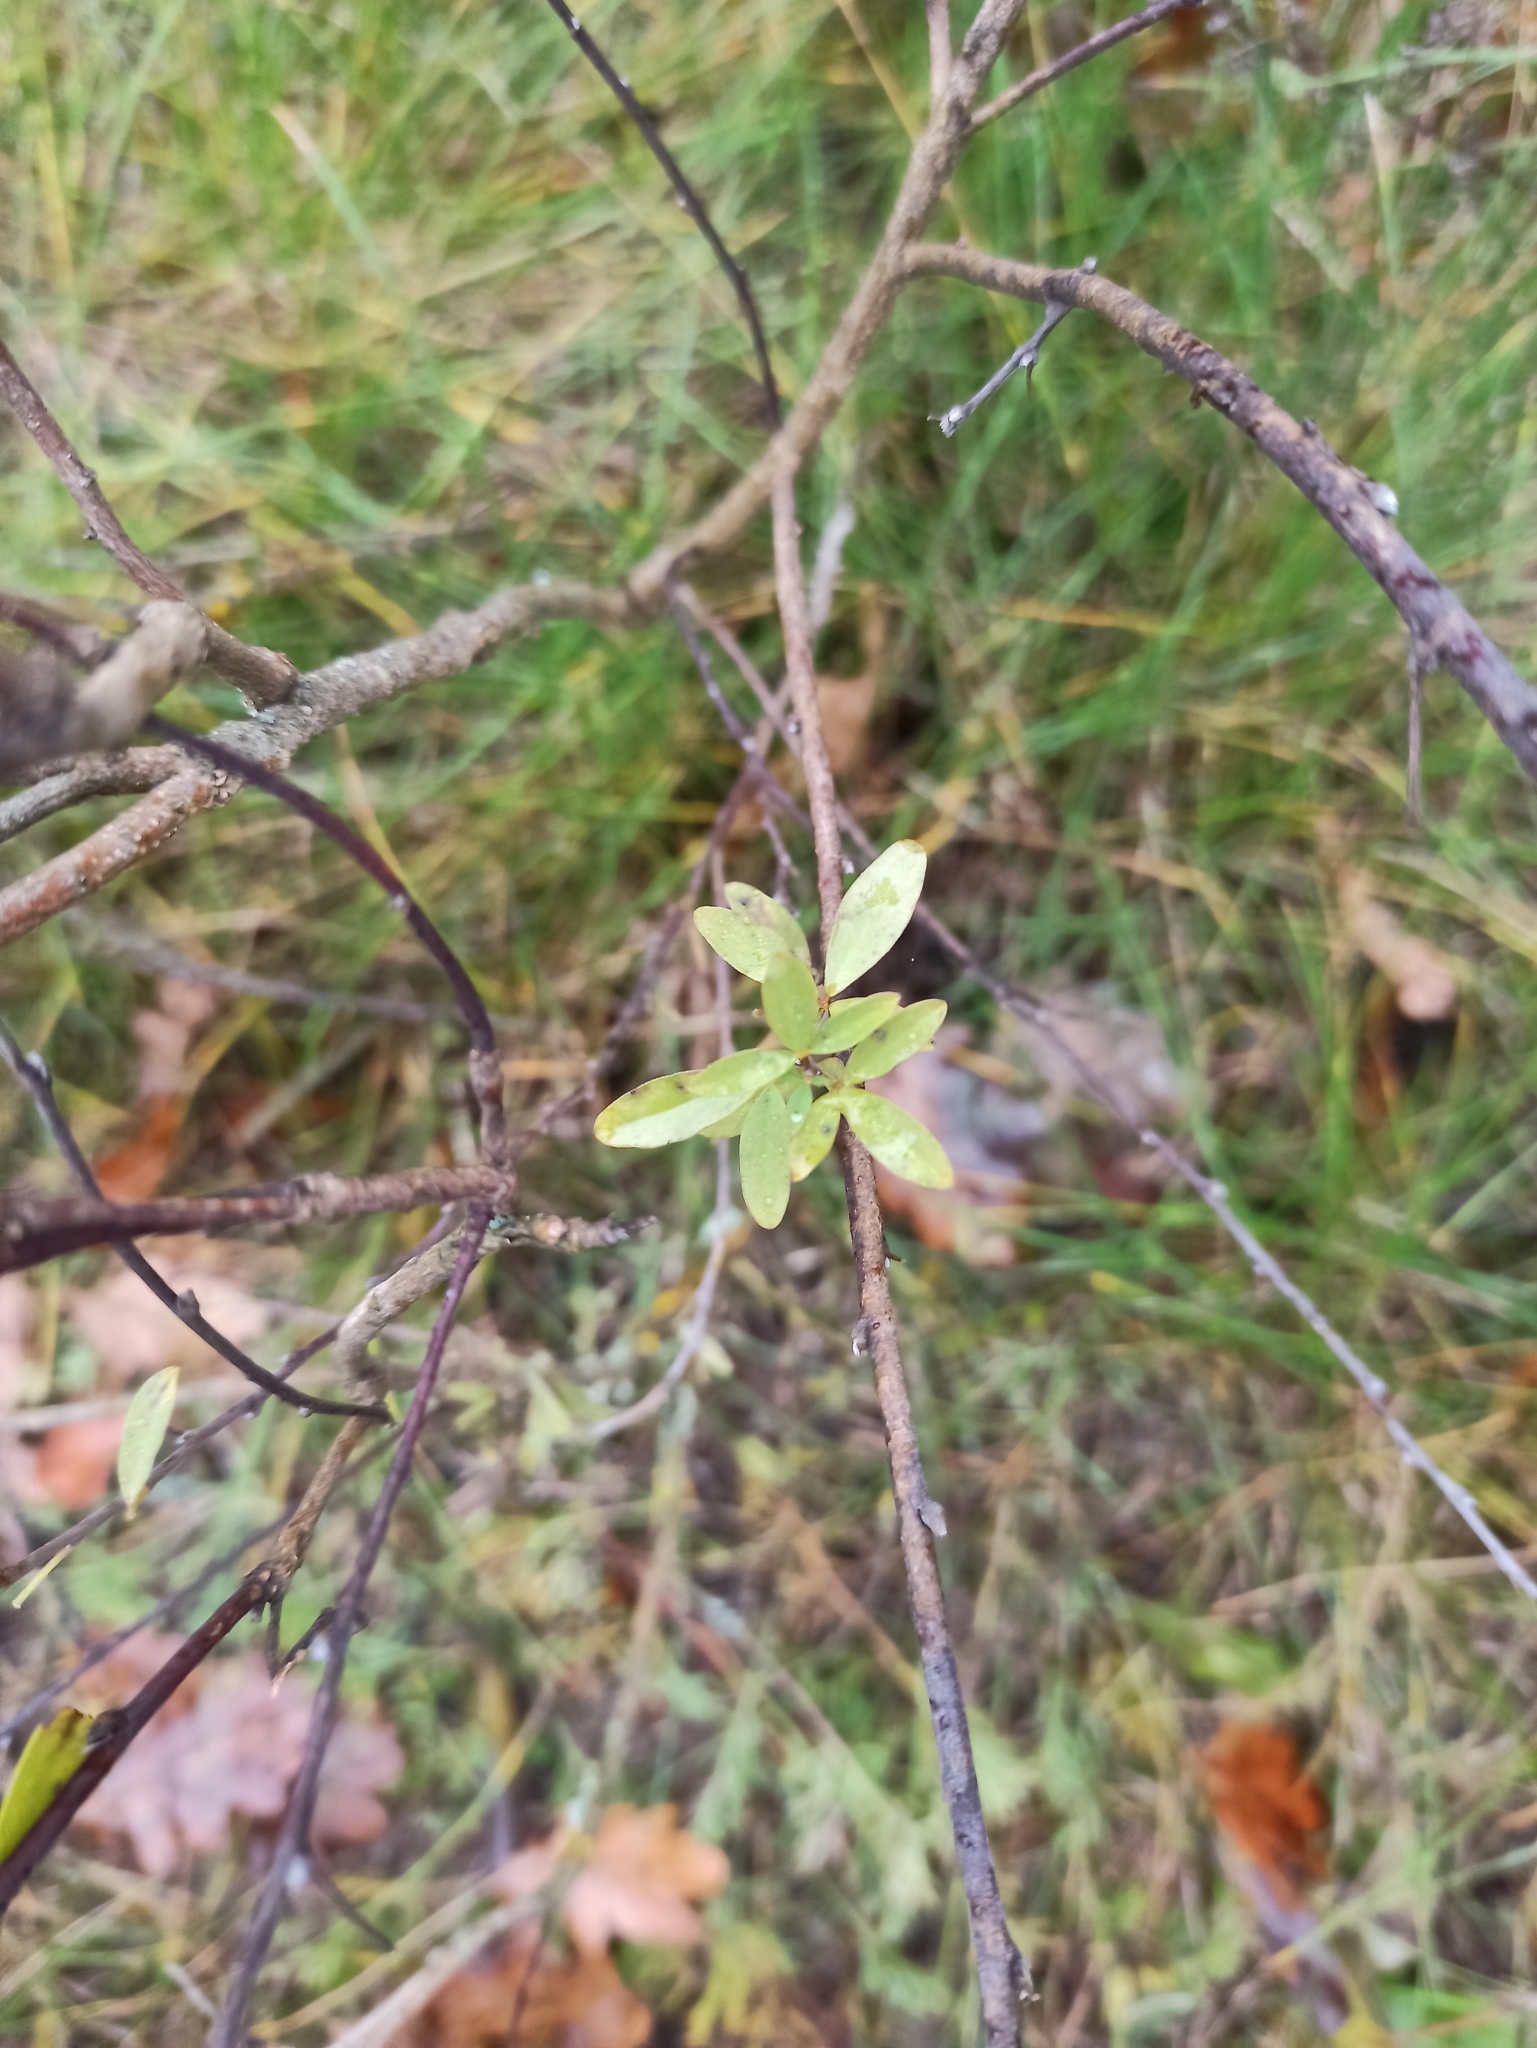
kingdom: Plantae
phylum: Tracheophyta
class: Magnoliopsida
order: Fabales
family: Fabaceae
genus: Chamaecytisus
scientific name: Chamaecytisus ruthenicus
